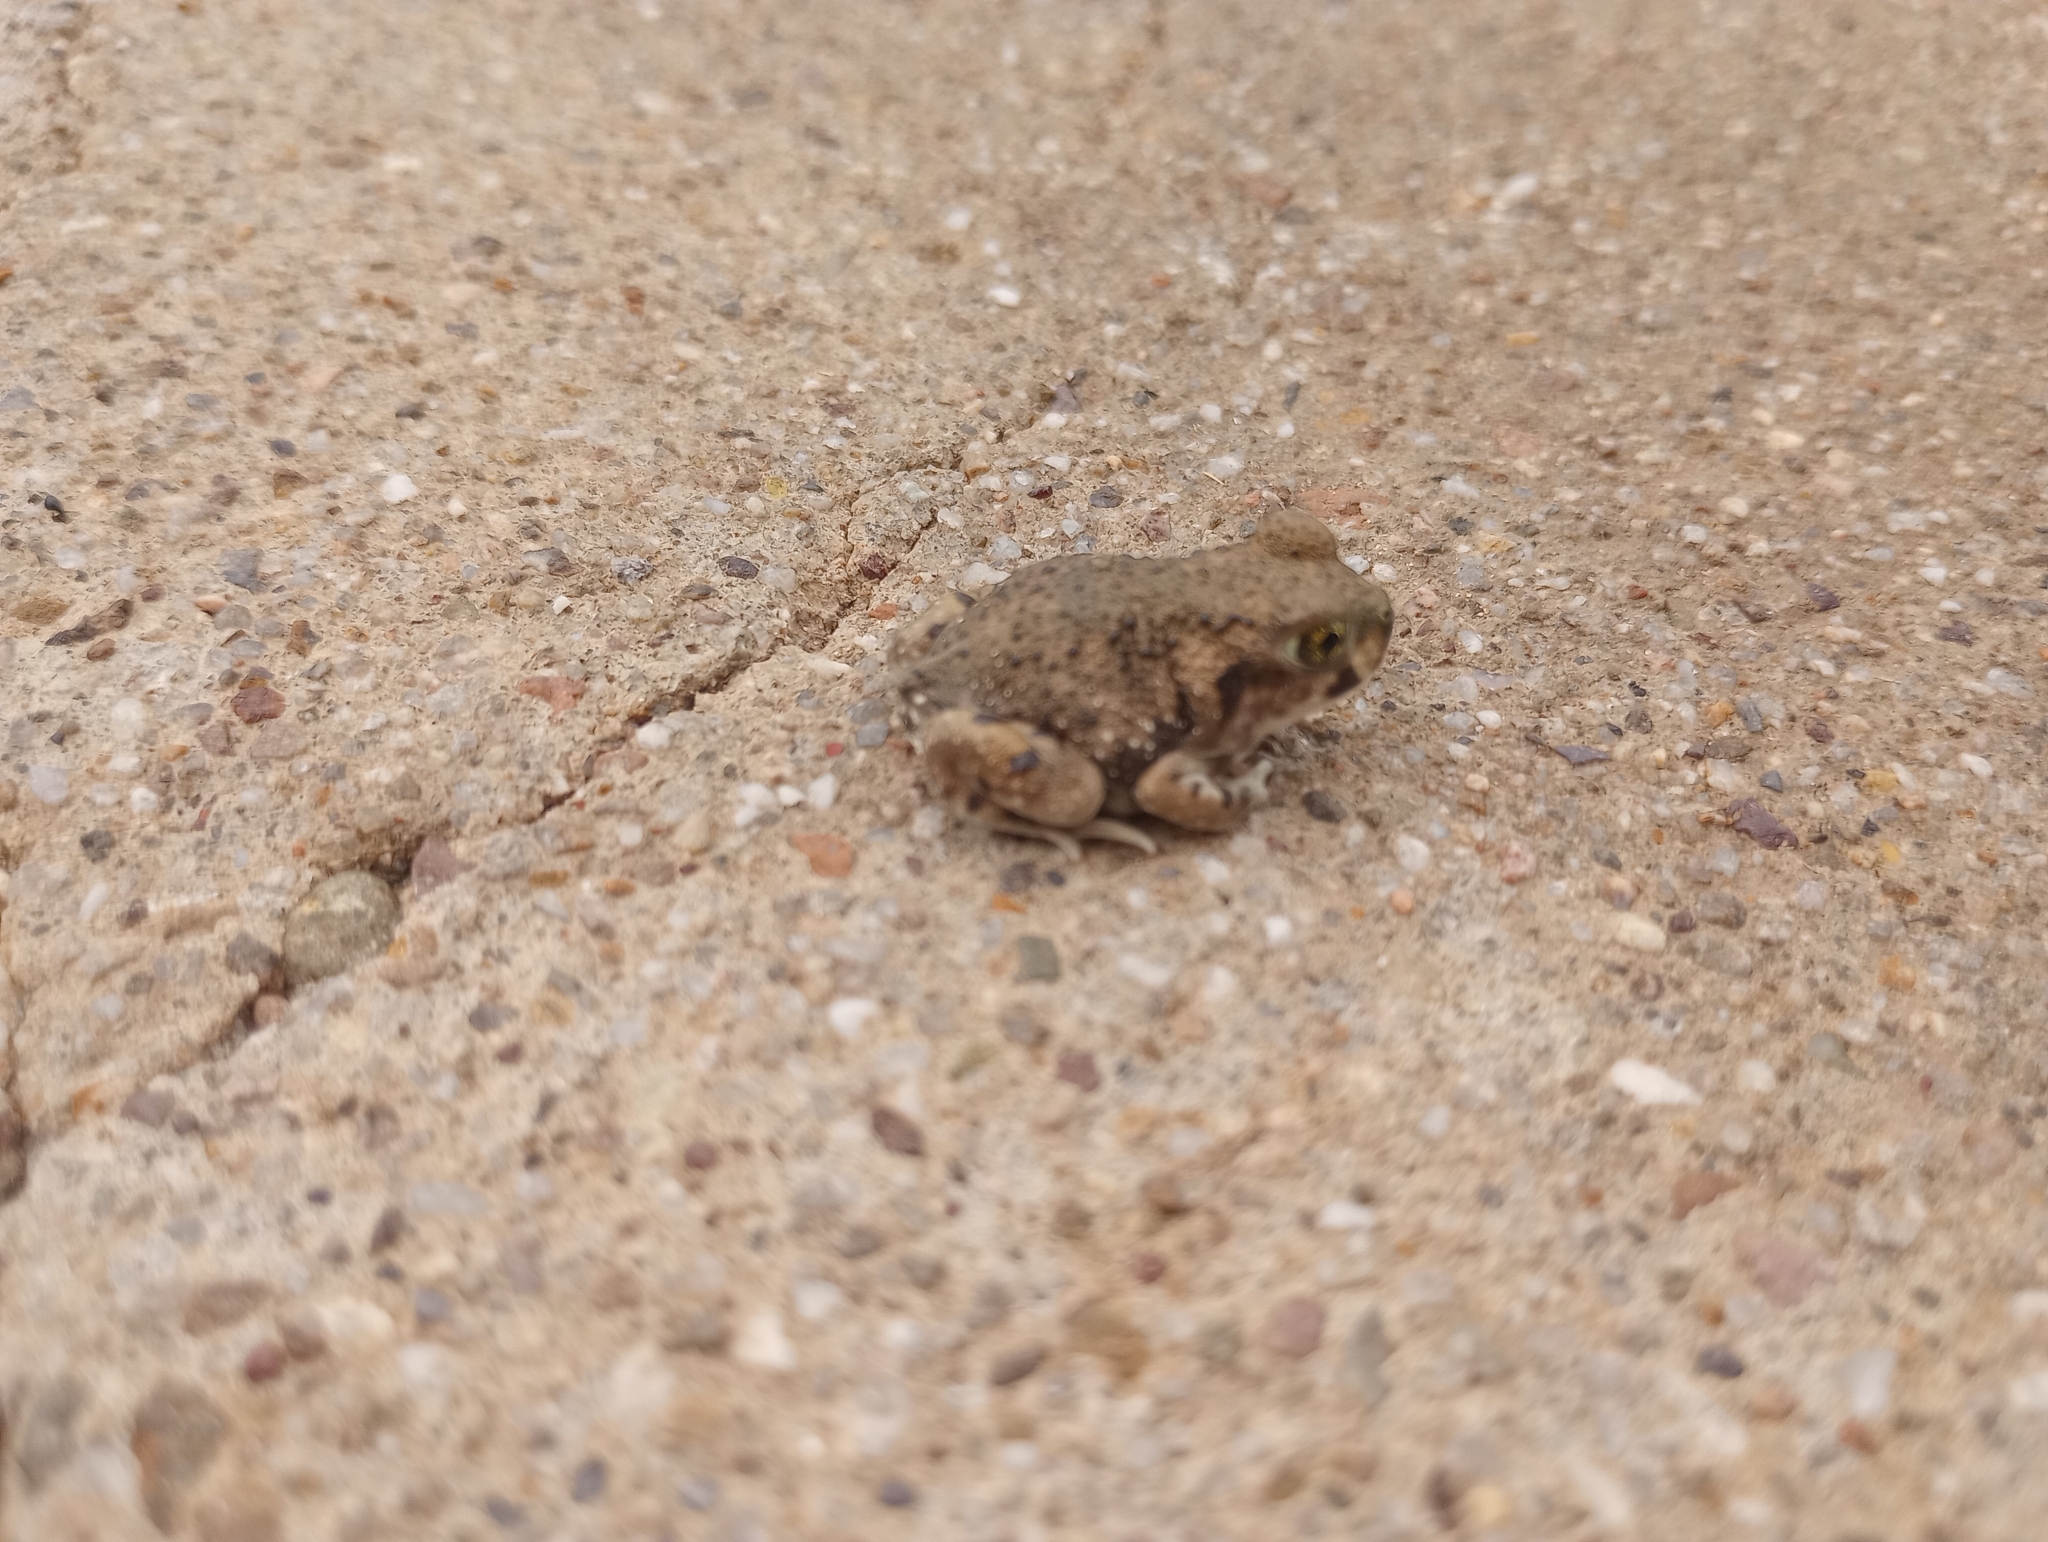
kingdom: Animalia
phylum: Chordata
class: Amphibia
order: Anura
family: Scaphiopodidae
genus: Scaphiopus
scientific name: Scaphiopus couchii
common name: Couch's spadefoot toad
